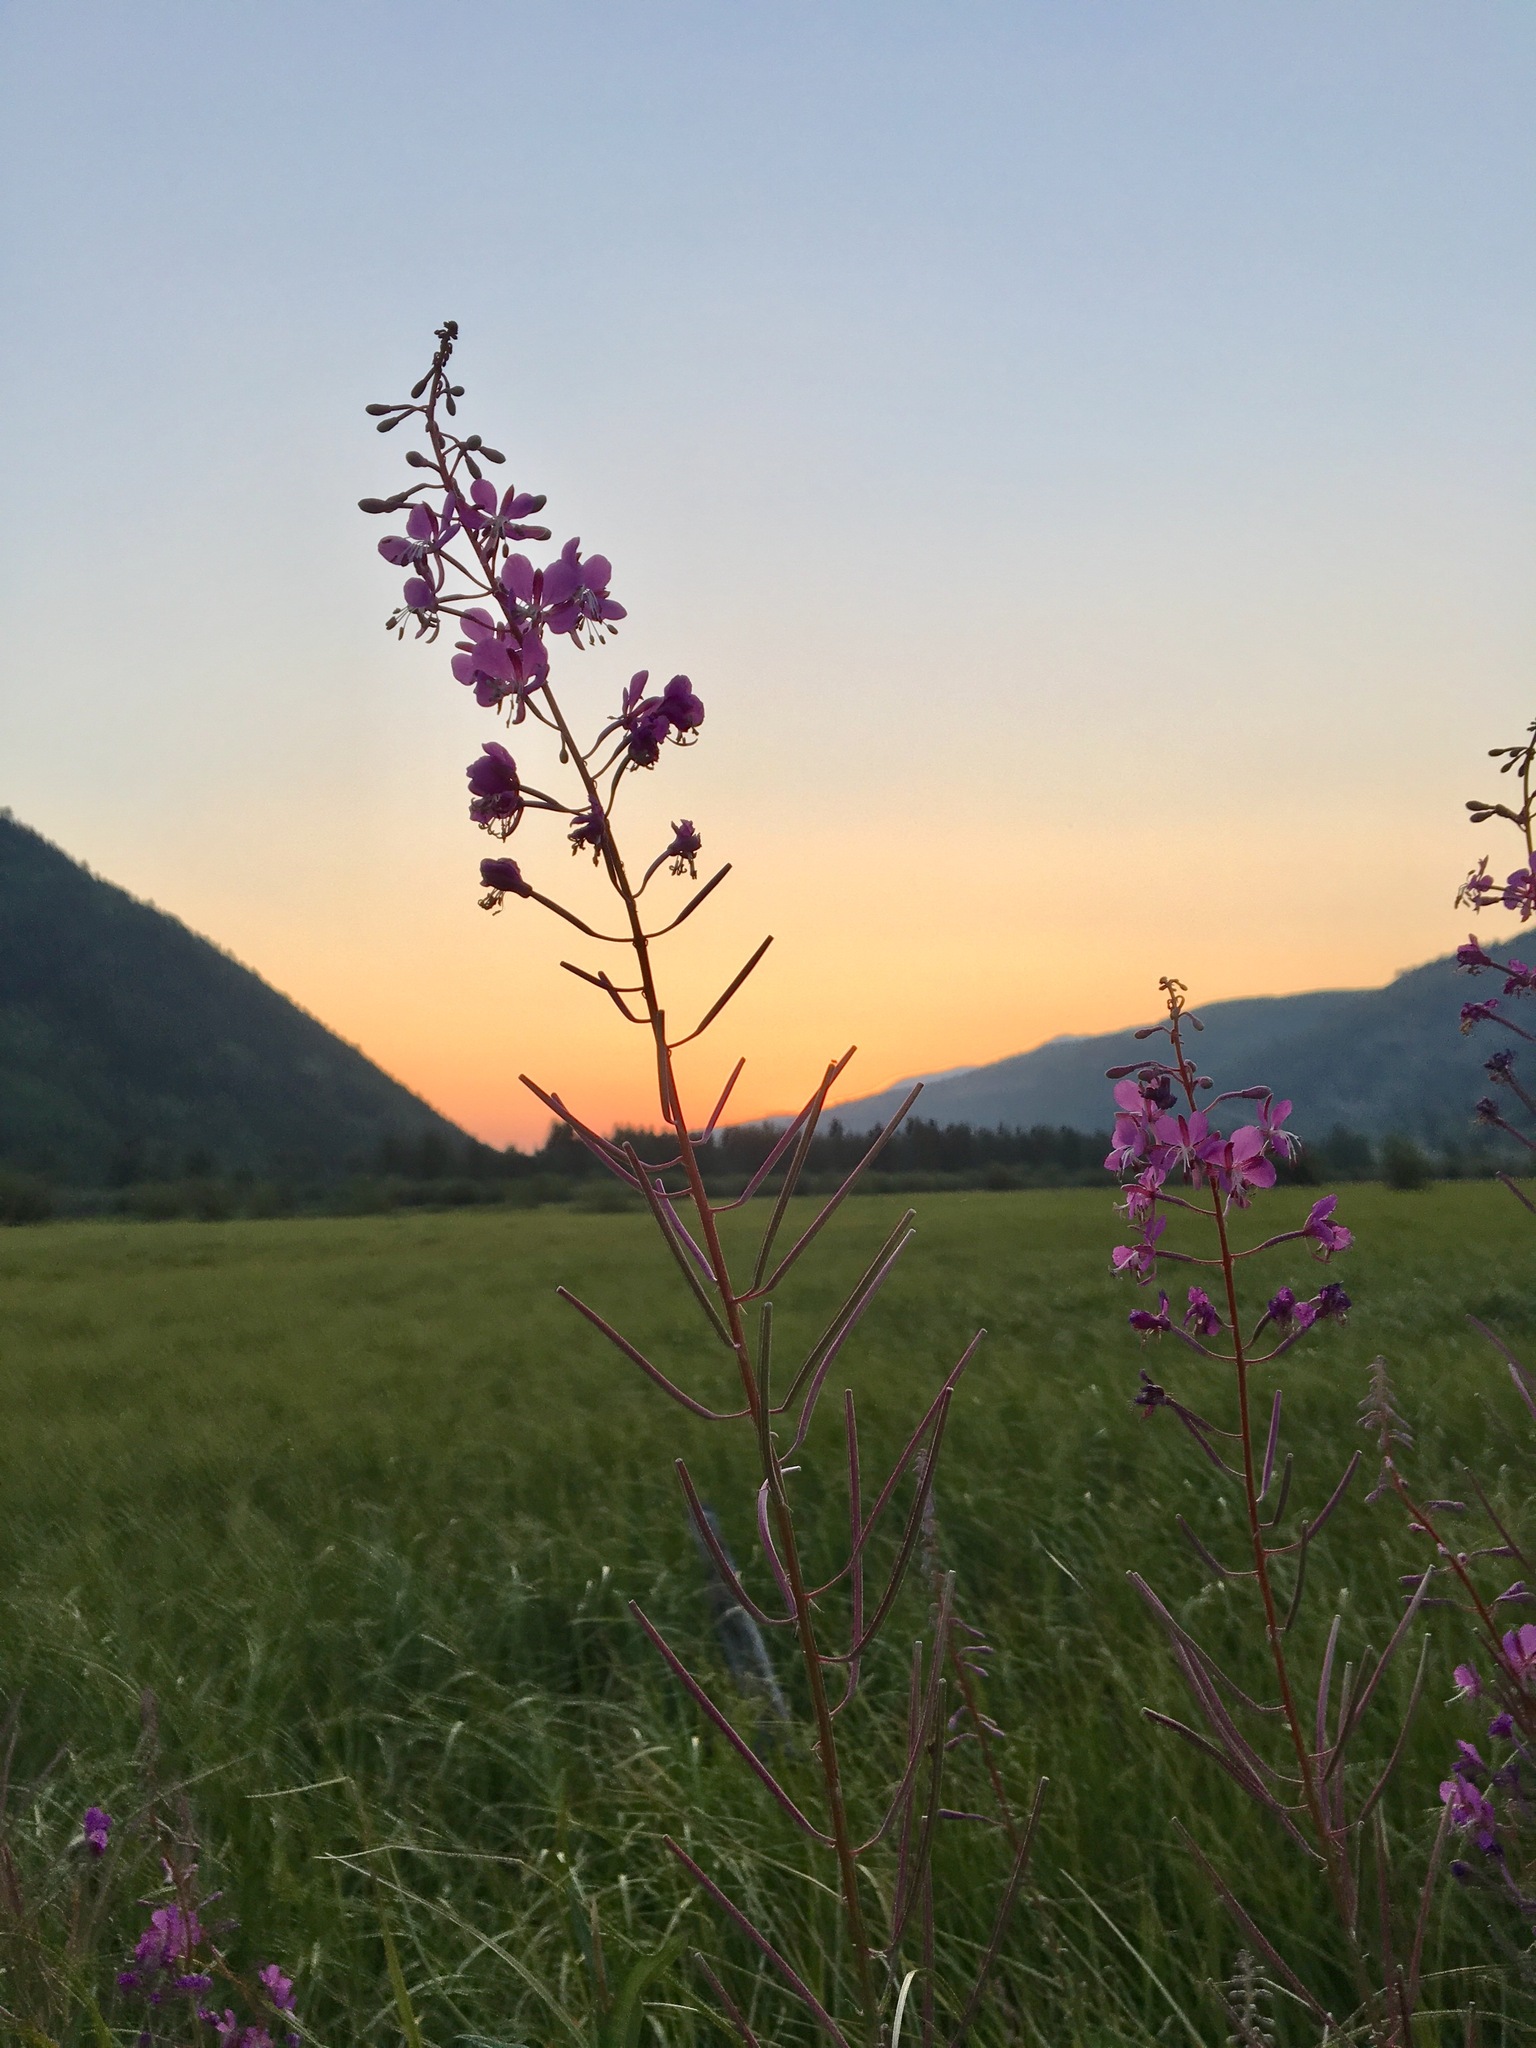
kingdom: Plantae
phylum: Tracheophyta
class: Magnoliopsida
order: Myrtales
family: Onagraceae
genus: Chamaenerion
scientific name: Chamaenerion angustifolium
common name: Fireweed
